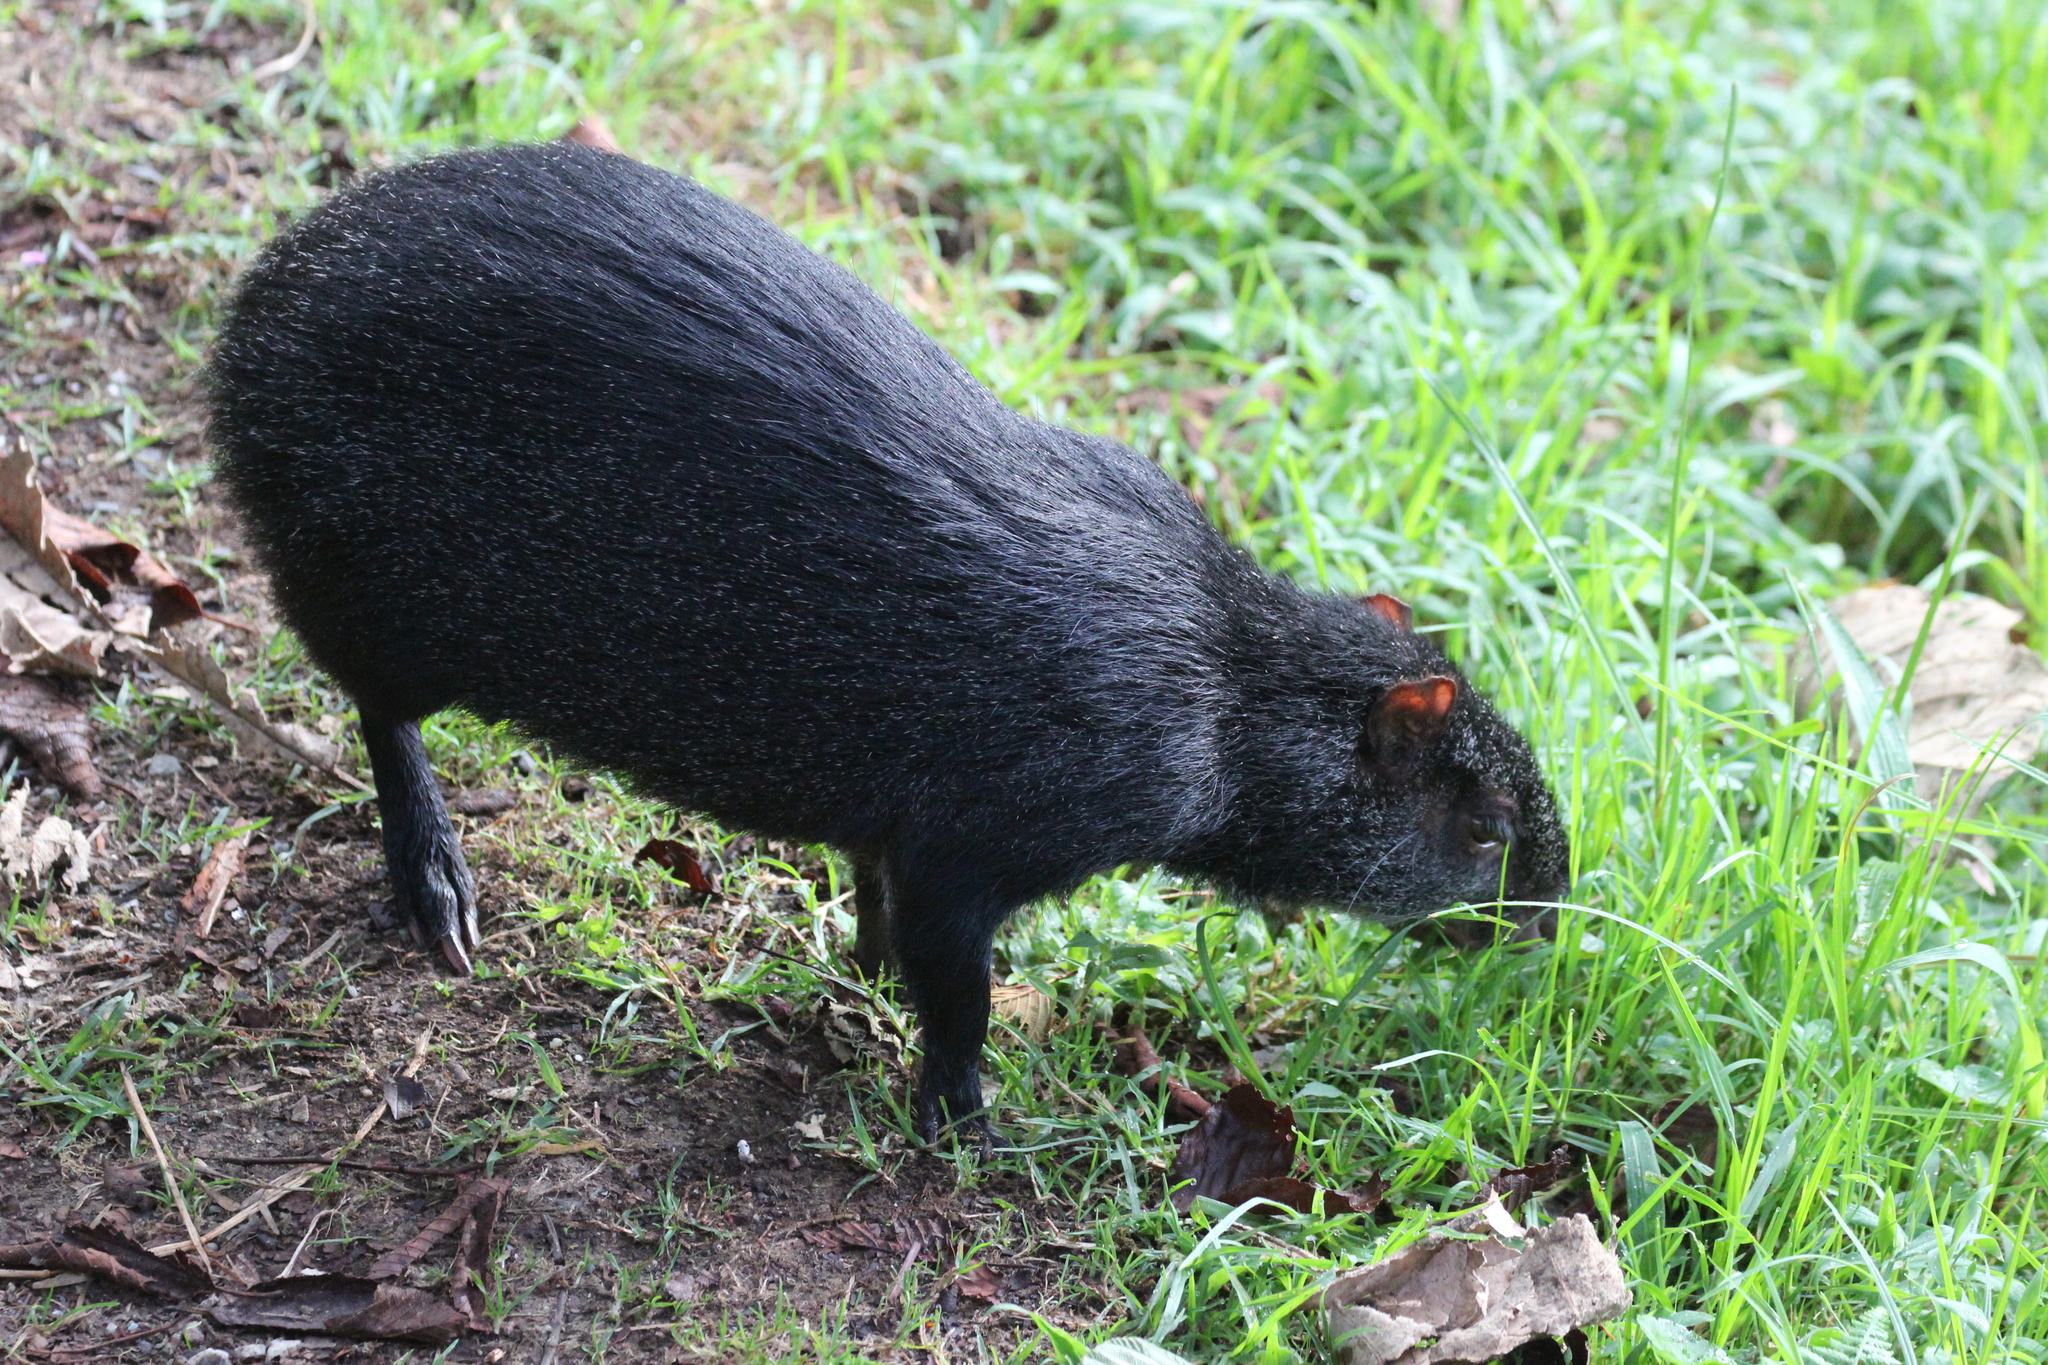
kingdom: Animalia
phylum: Chordata
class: Mammalia
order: Rodentia
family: Dasyproctidae
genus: Dasyprocta
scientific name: Dasyprocta fuliginosa
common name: Black agouti
